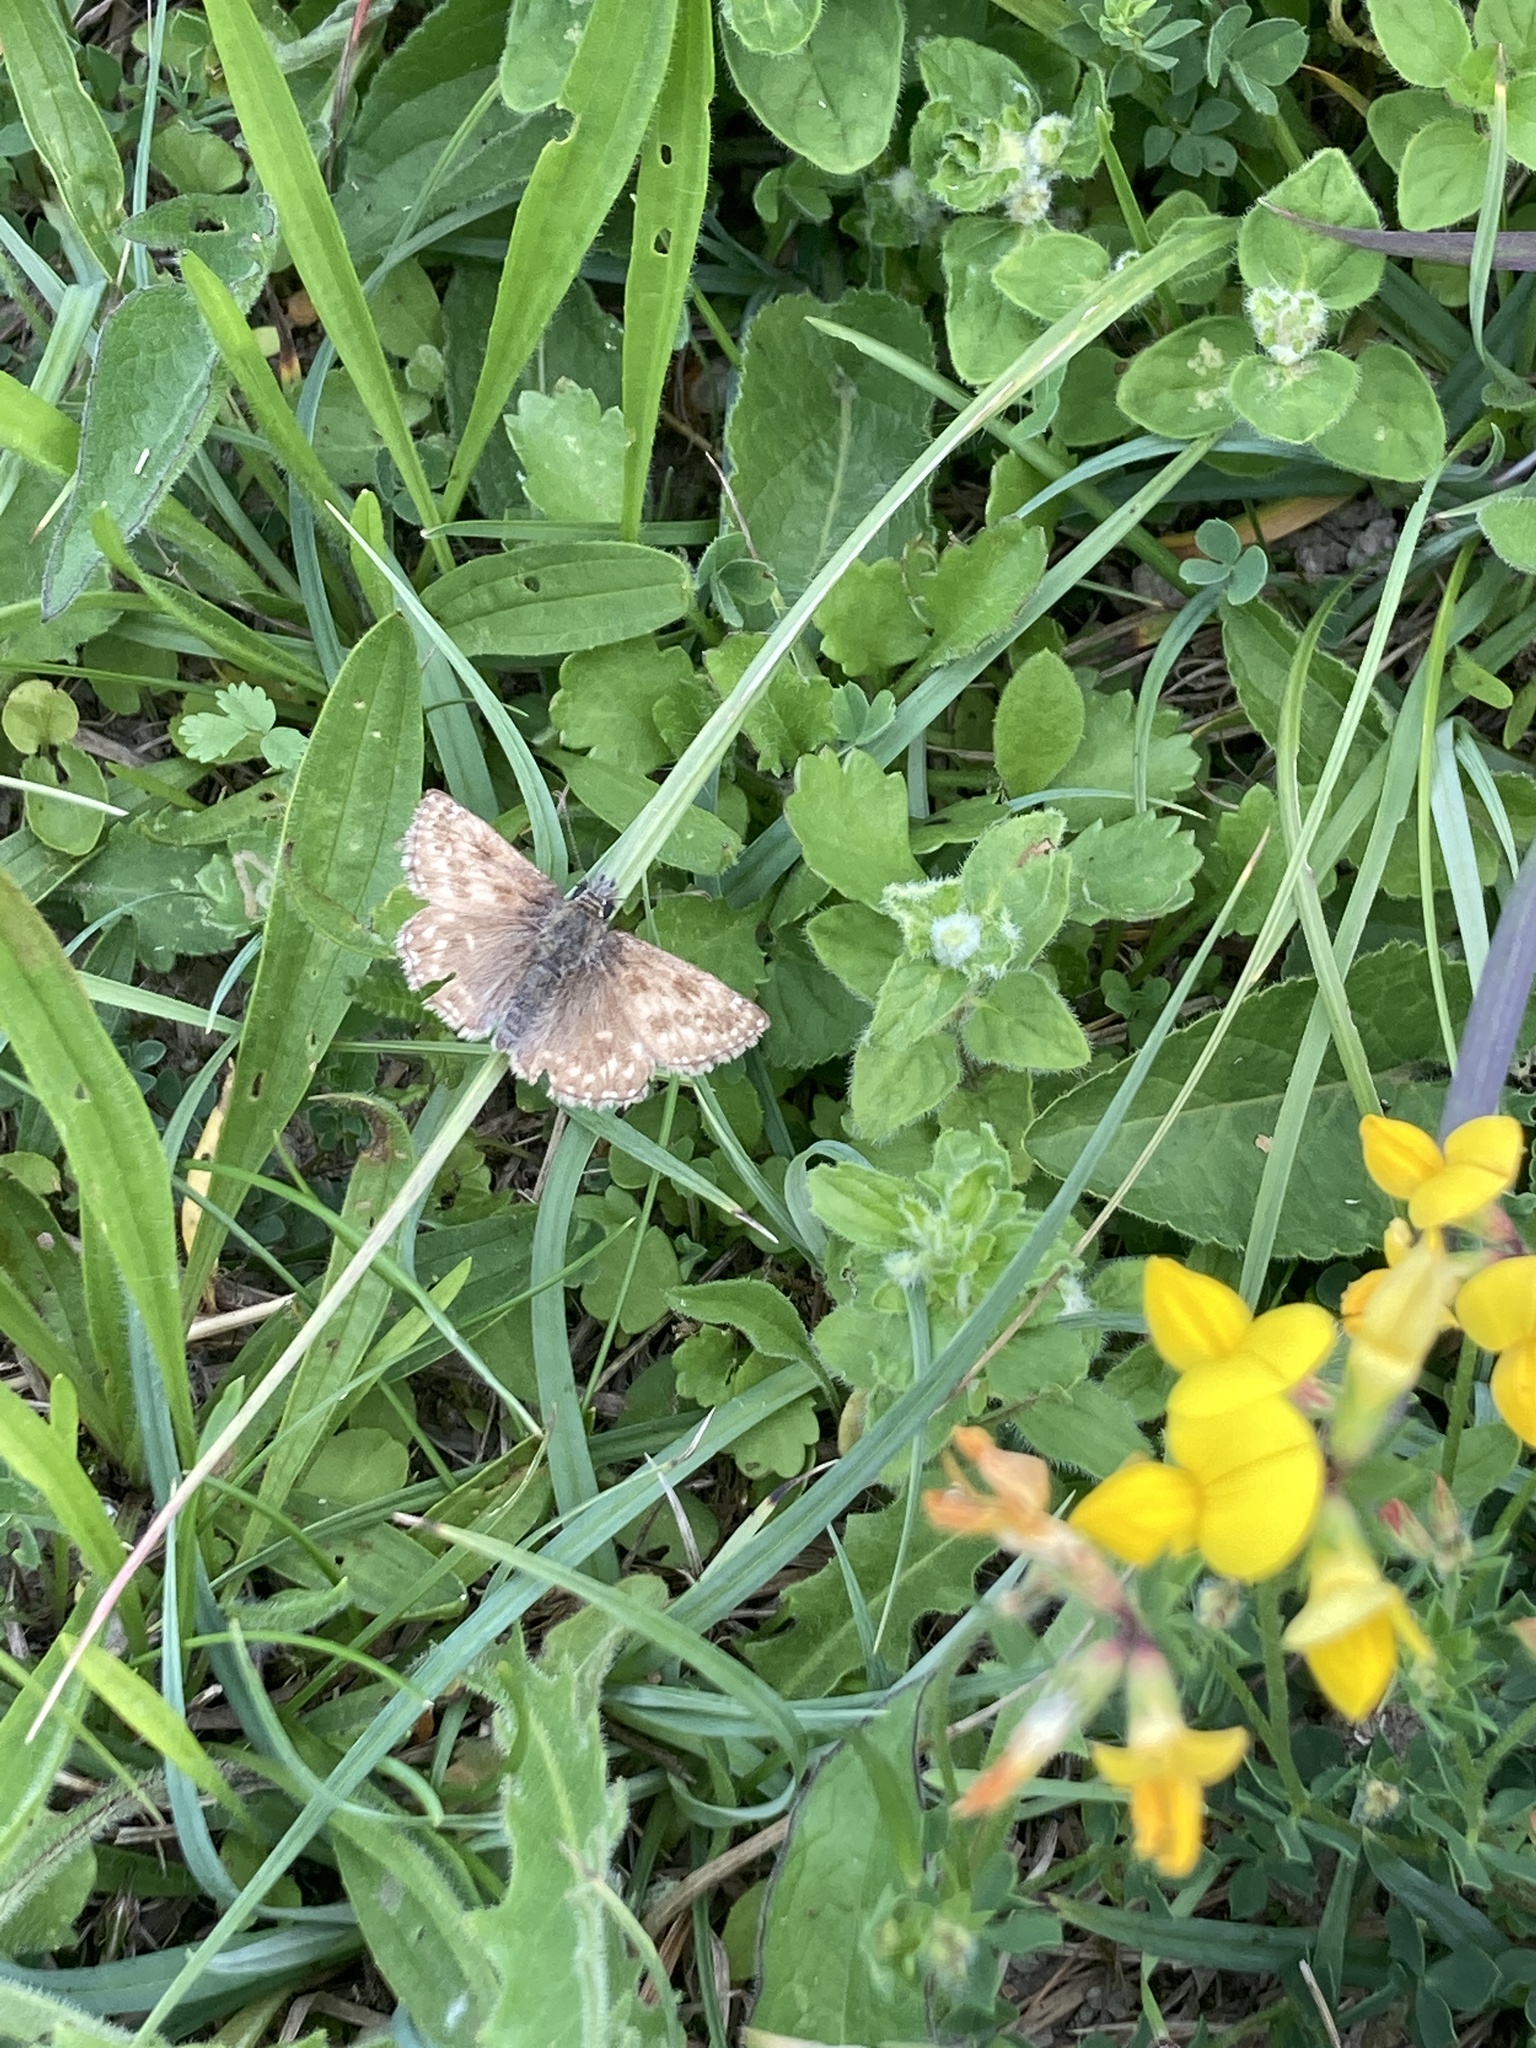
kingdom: Animalia
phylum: Arthropoda
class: Insecta
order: Lepidoptera
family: Hesperiidae
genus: Erynnis
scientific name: Erynnis tages
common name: Dingy skipper
